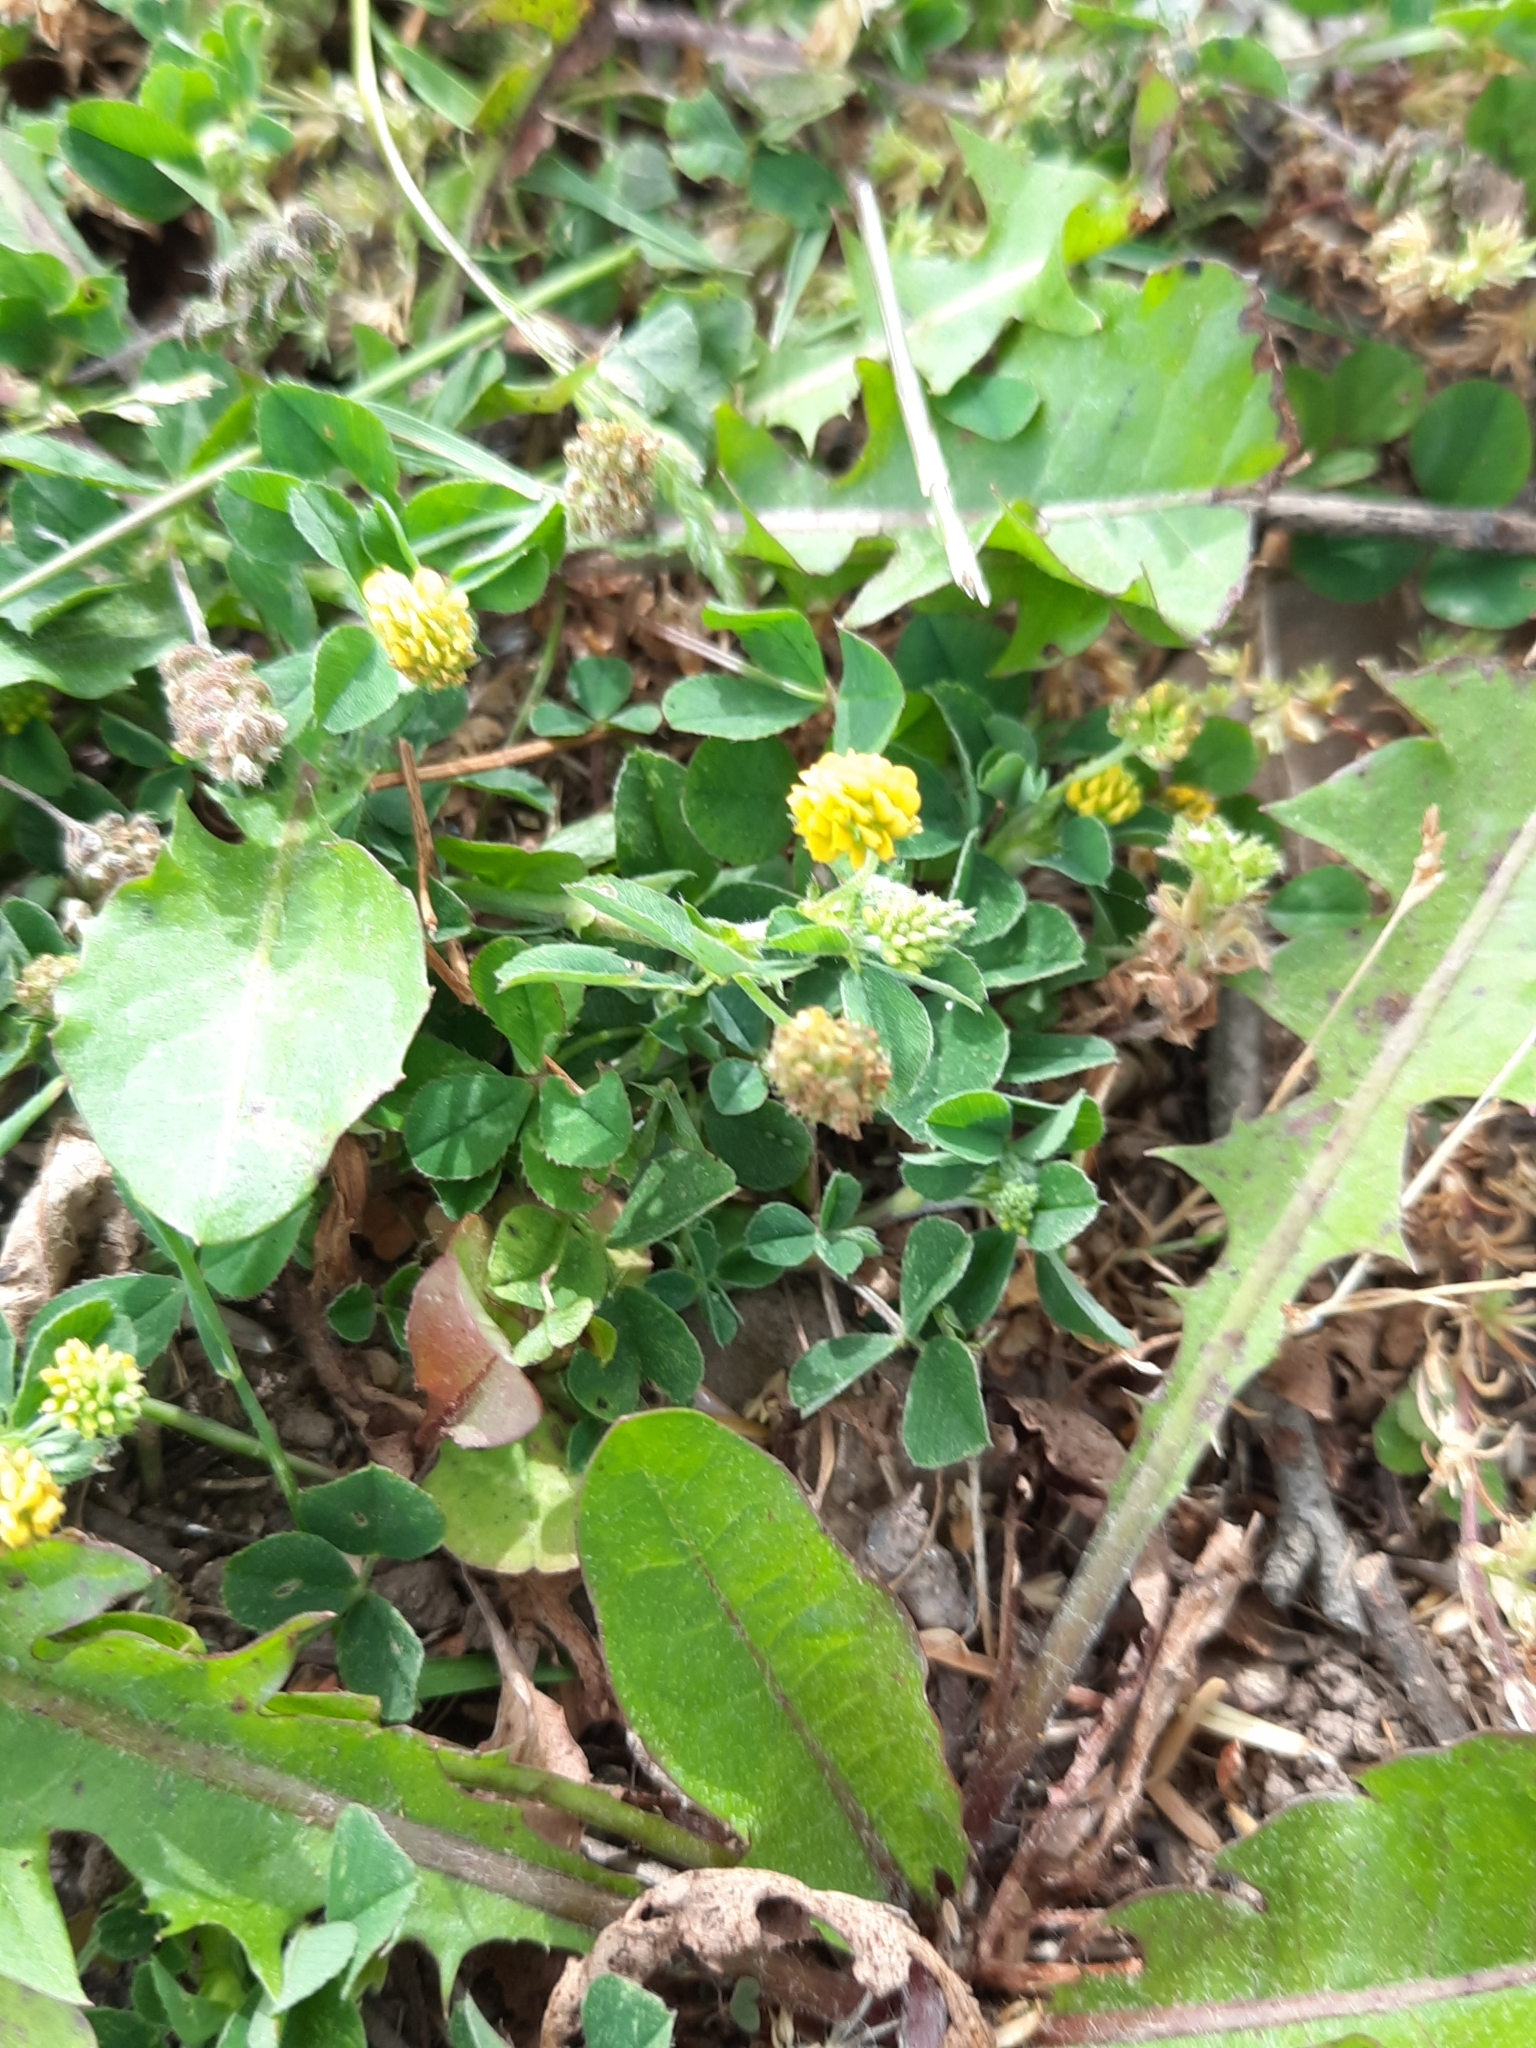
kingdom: Plantae
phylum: Tracheophyta
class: Magnoliopsida
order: Fabales
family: Fabaceae
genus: Medicago
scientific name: Medicago lupulina
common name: Black medick
